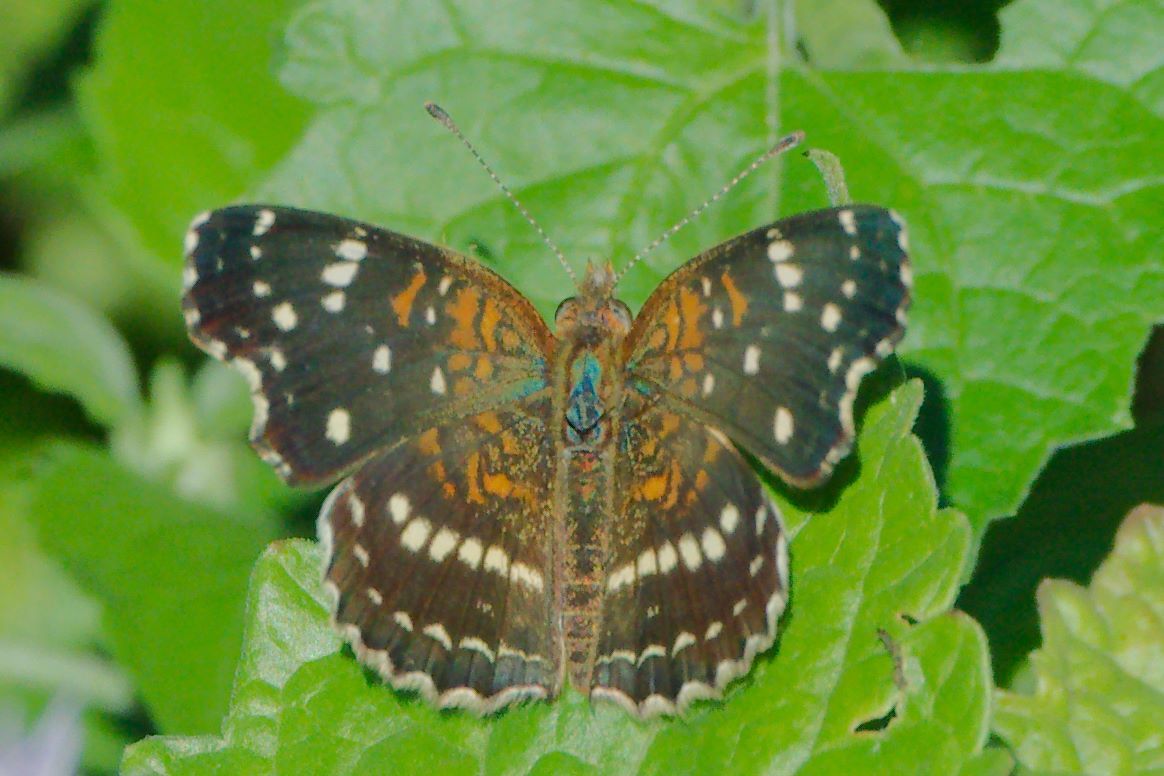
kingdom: Animalia
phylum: Arthropoda
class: Insecta
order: Lepidoptera
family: Nymphalidae
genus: Anthanassa
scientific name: Anthanassa texana
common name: Texan crescent
